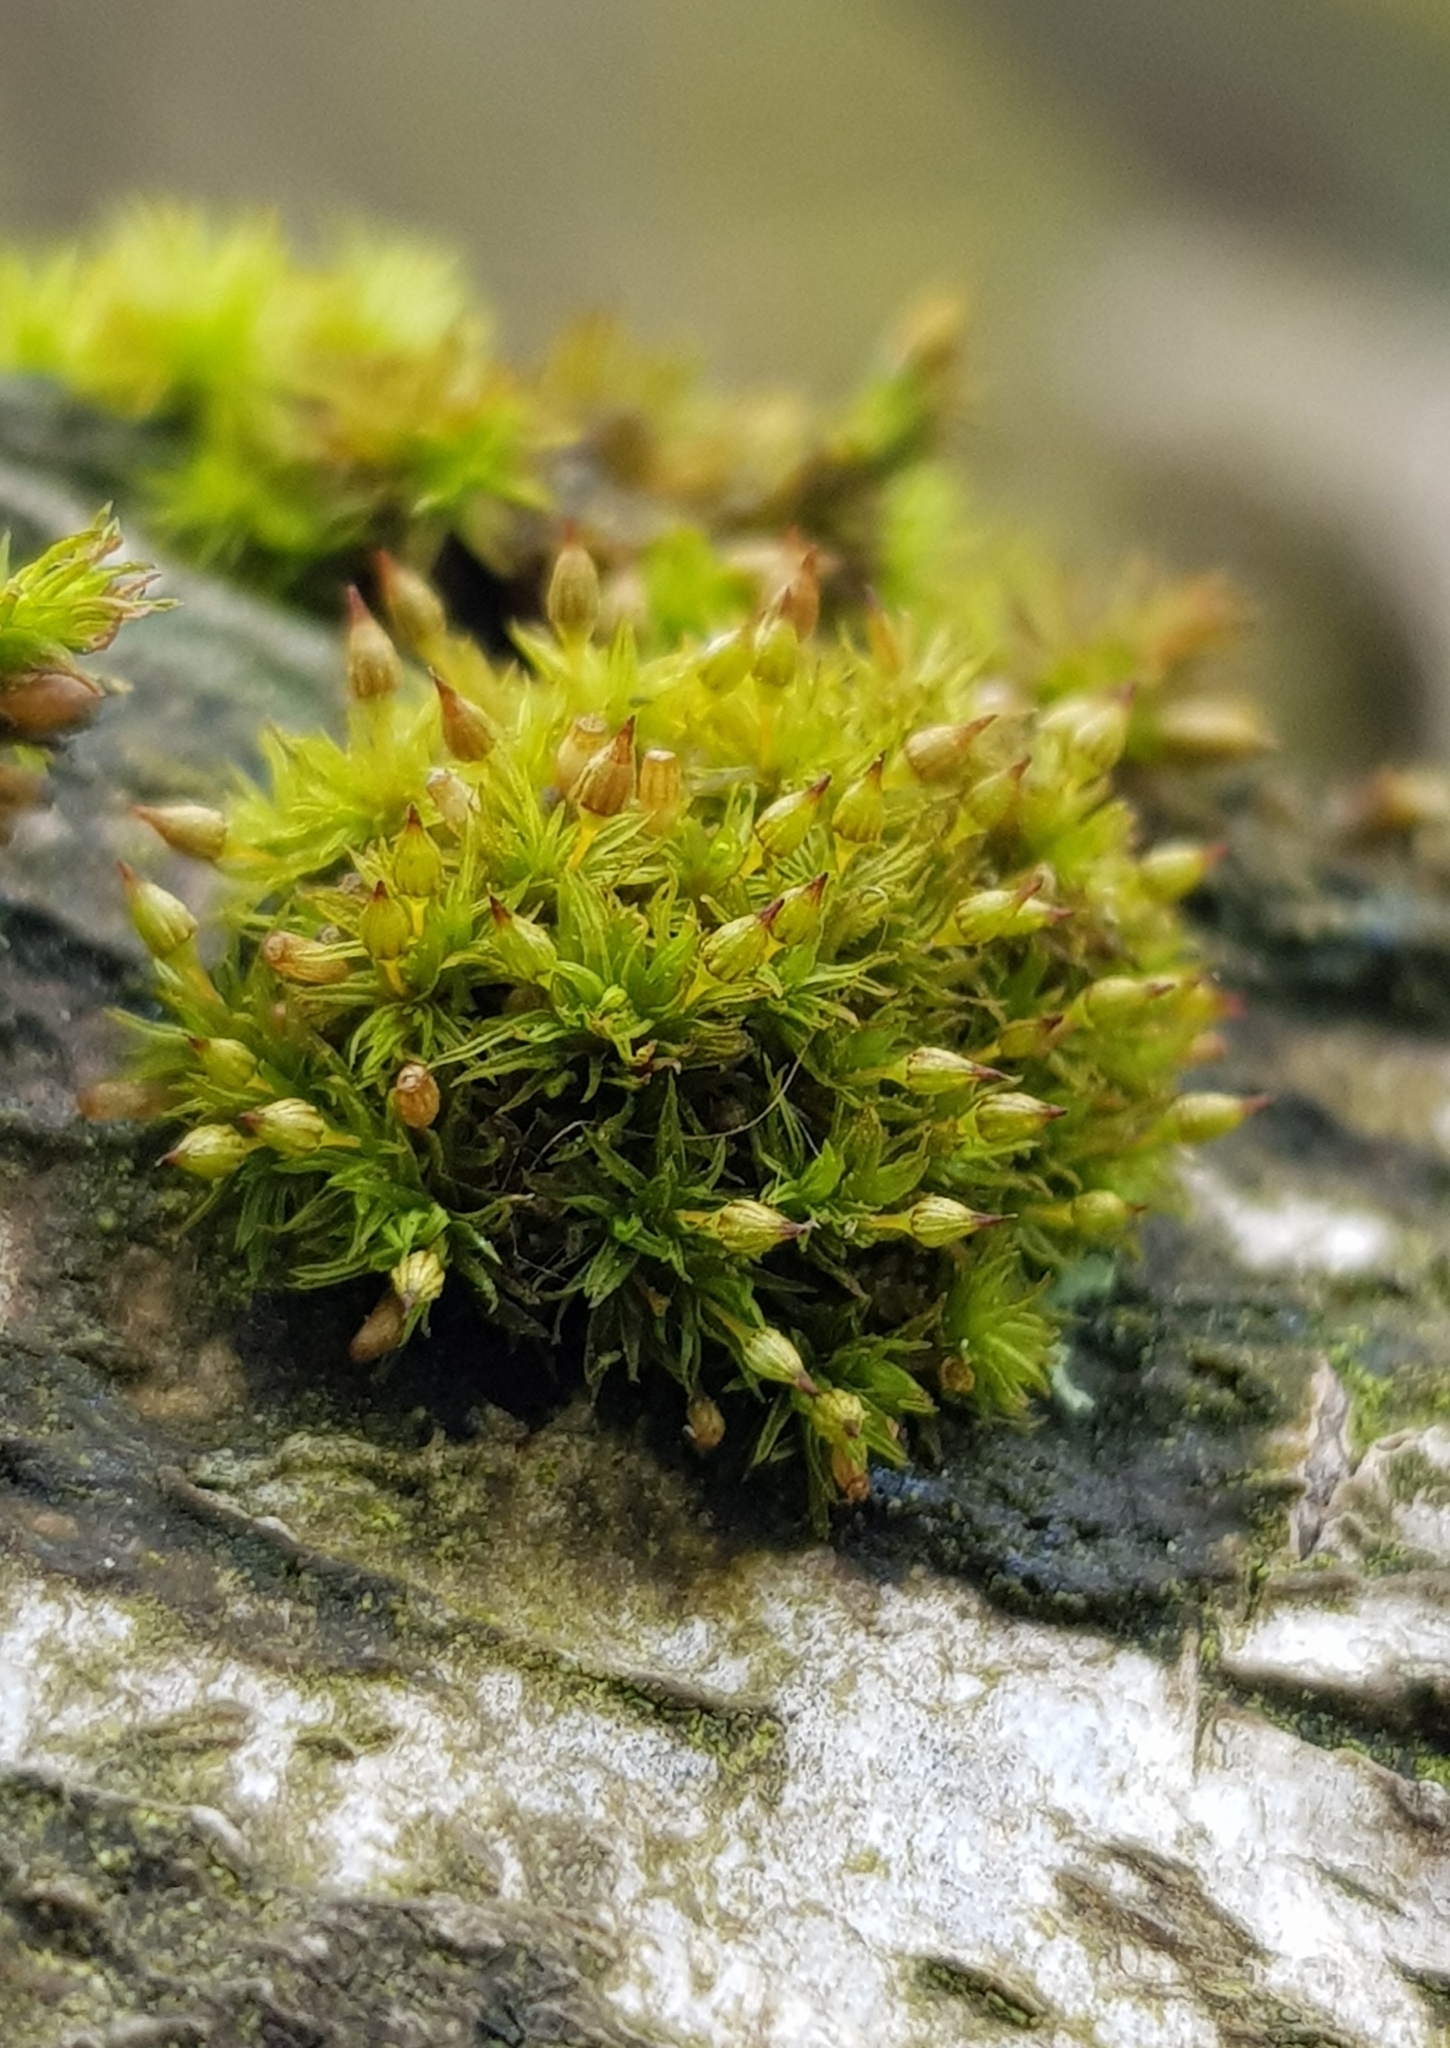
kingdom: Plantae
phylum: Bryophyta
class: Bryopsida
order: Orthotrichales
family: Orthotrichaceae
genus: Orthotrichum
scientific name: Orthotrichum pulchellum
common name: Elegant bristle-moss
